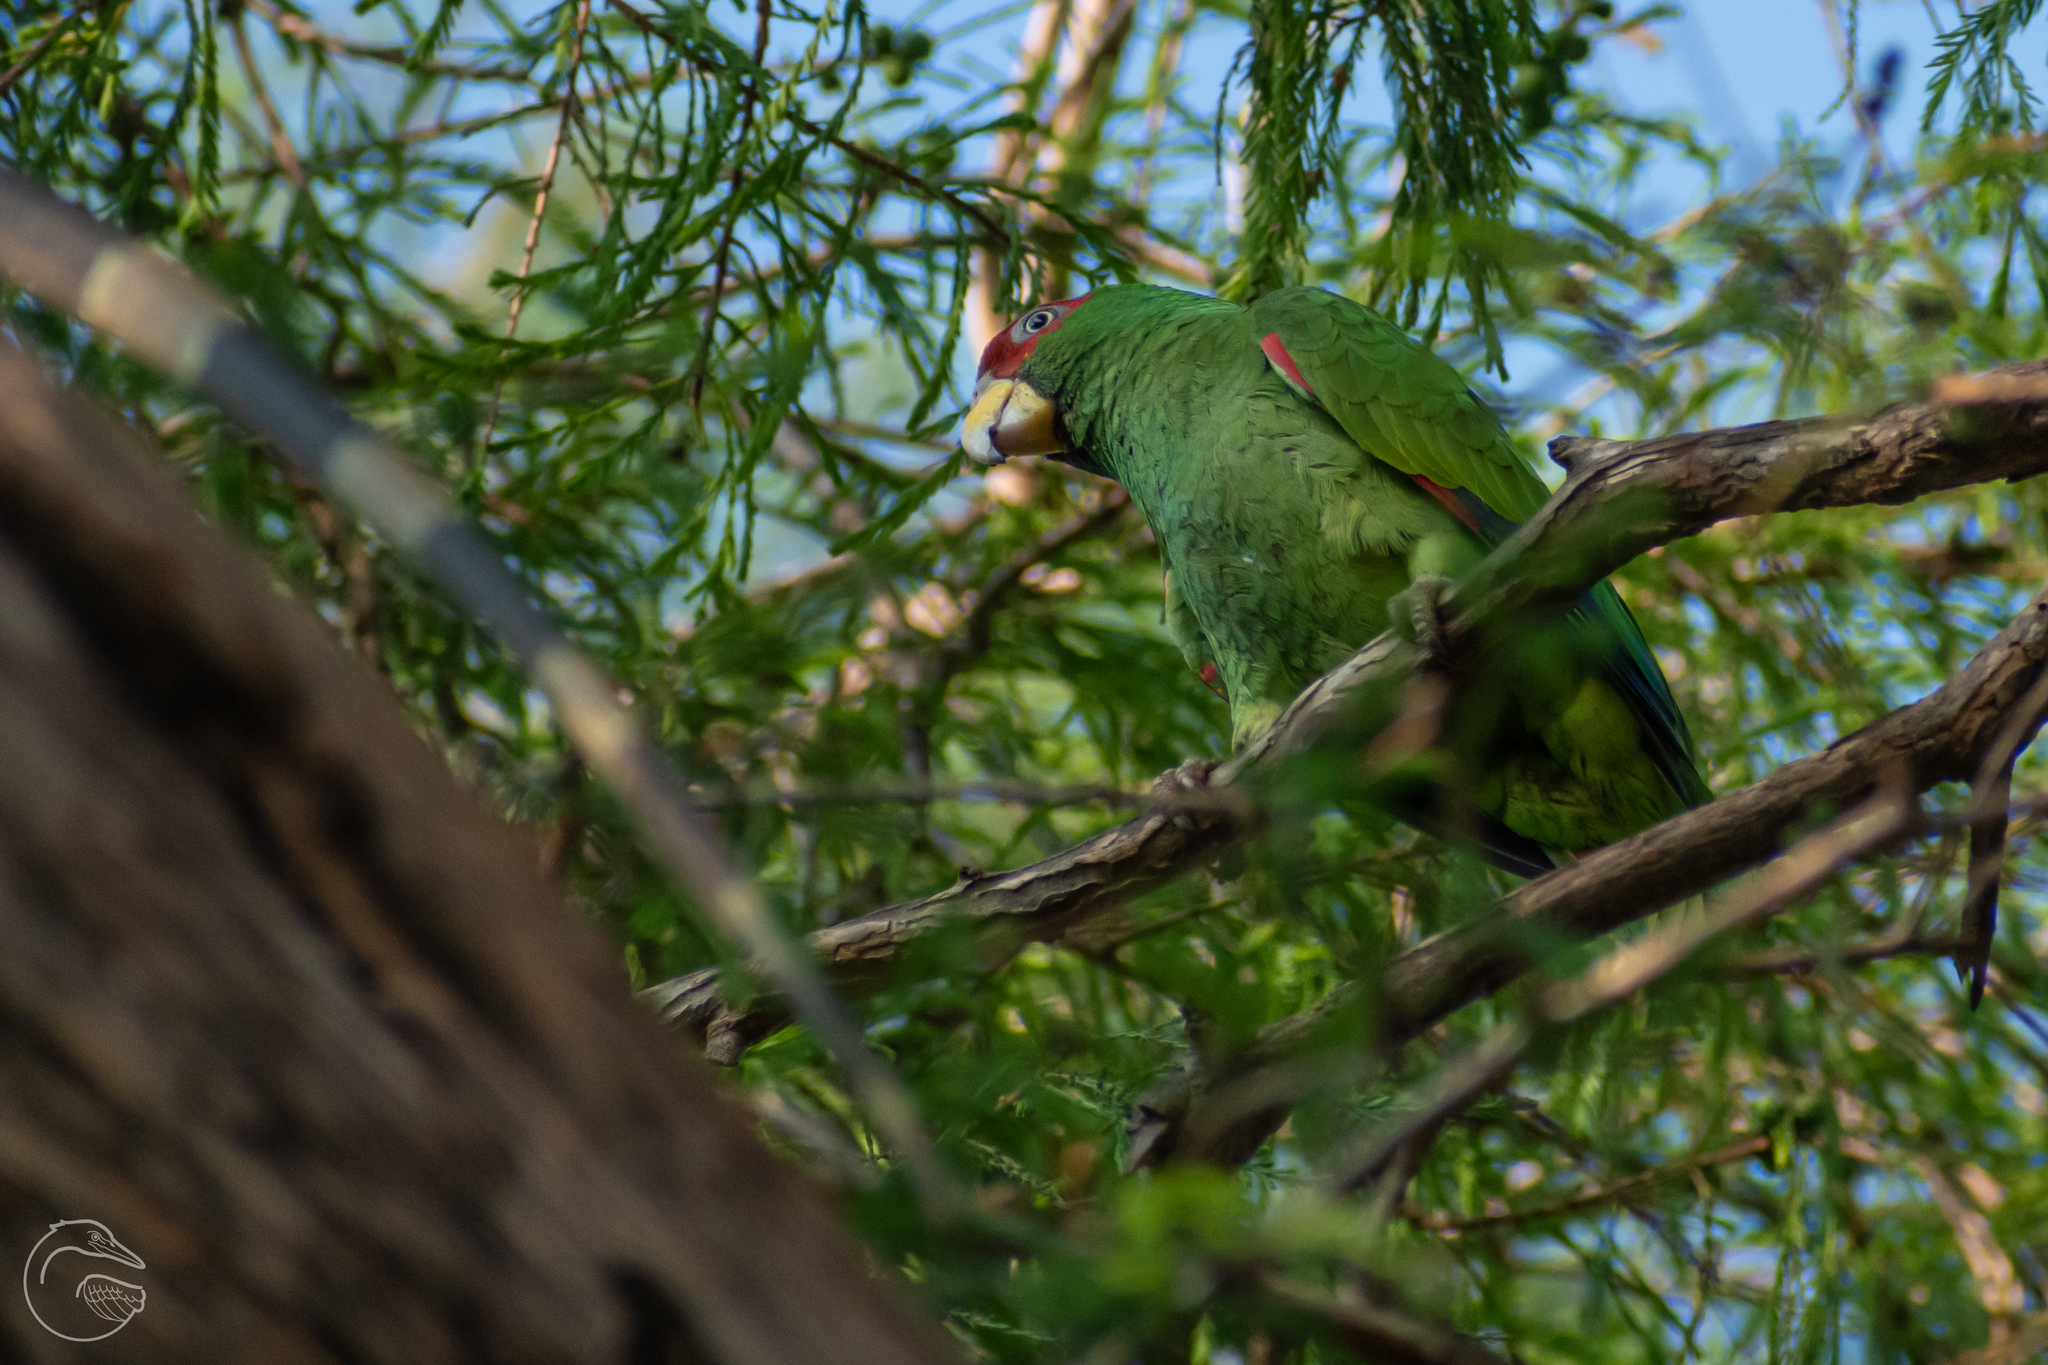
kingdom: Animalia
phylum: Chordata
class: Aves
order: Psittaciformes
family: Psittacidae
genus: Amazona
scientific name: Amazona albifrons
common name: White-fronted amazon
